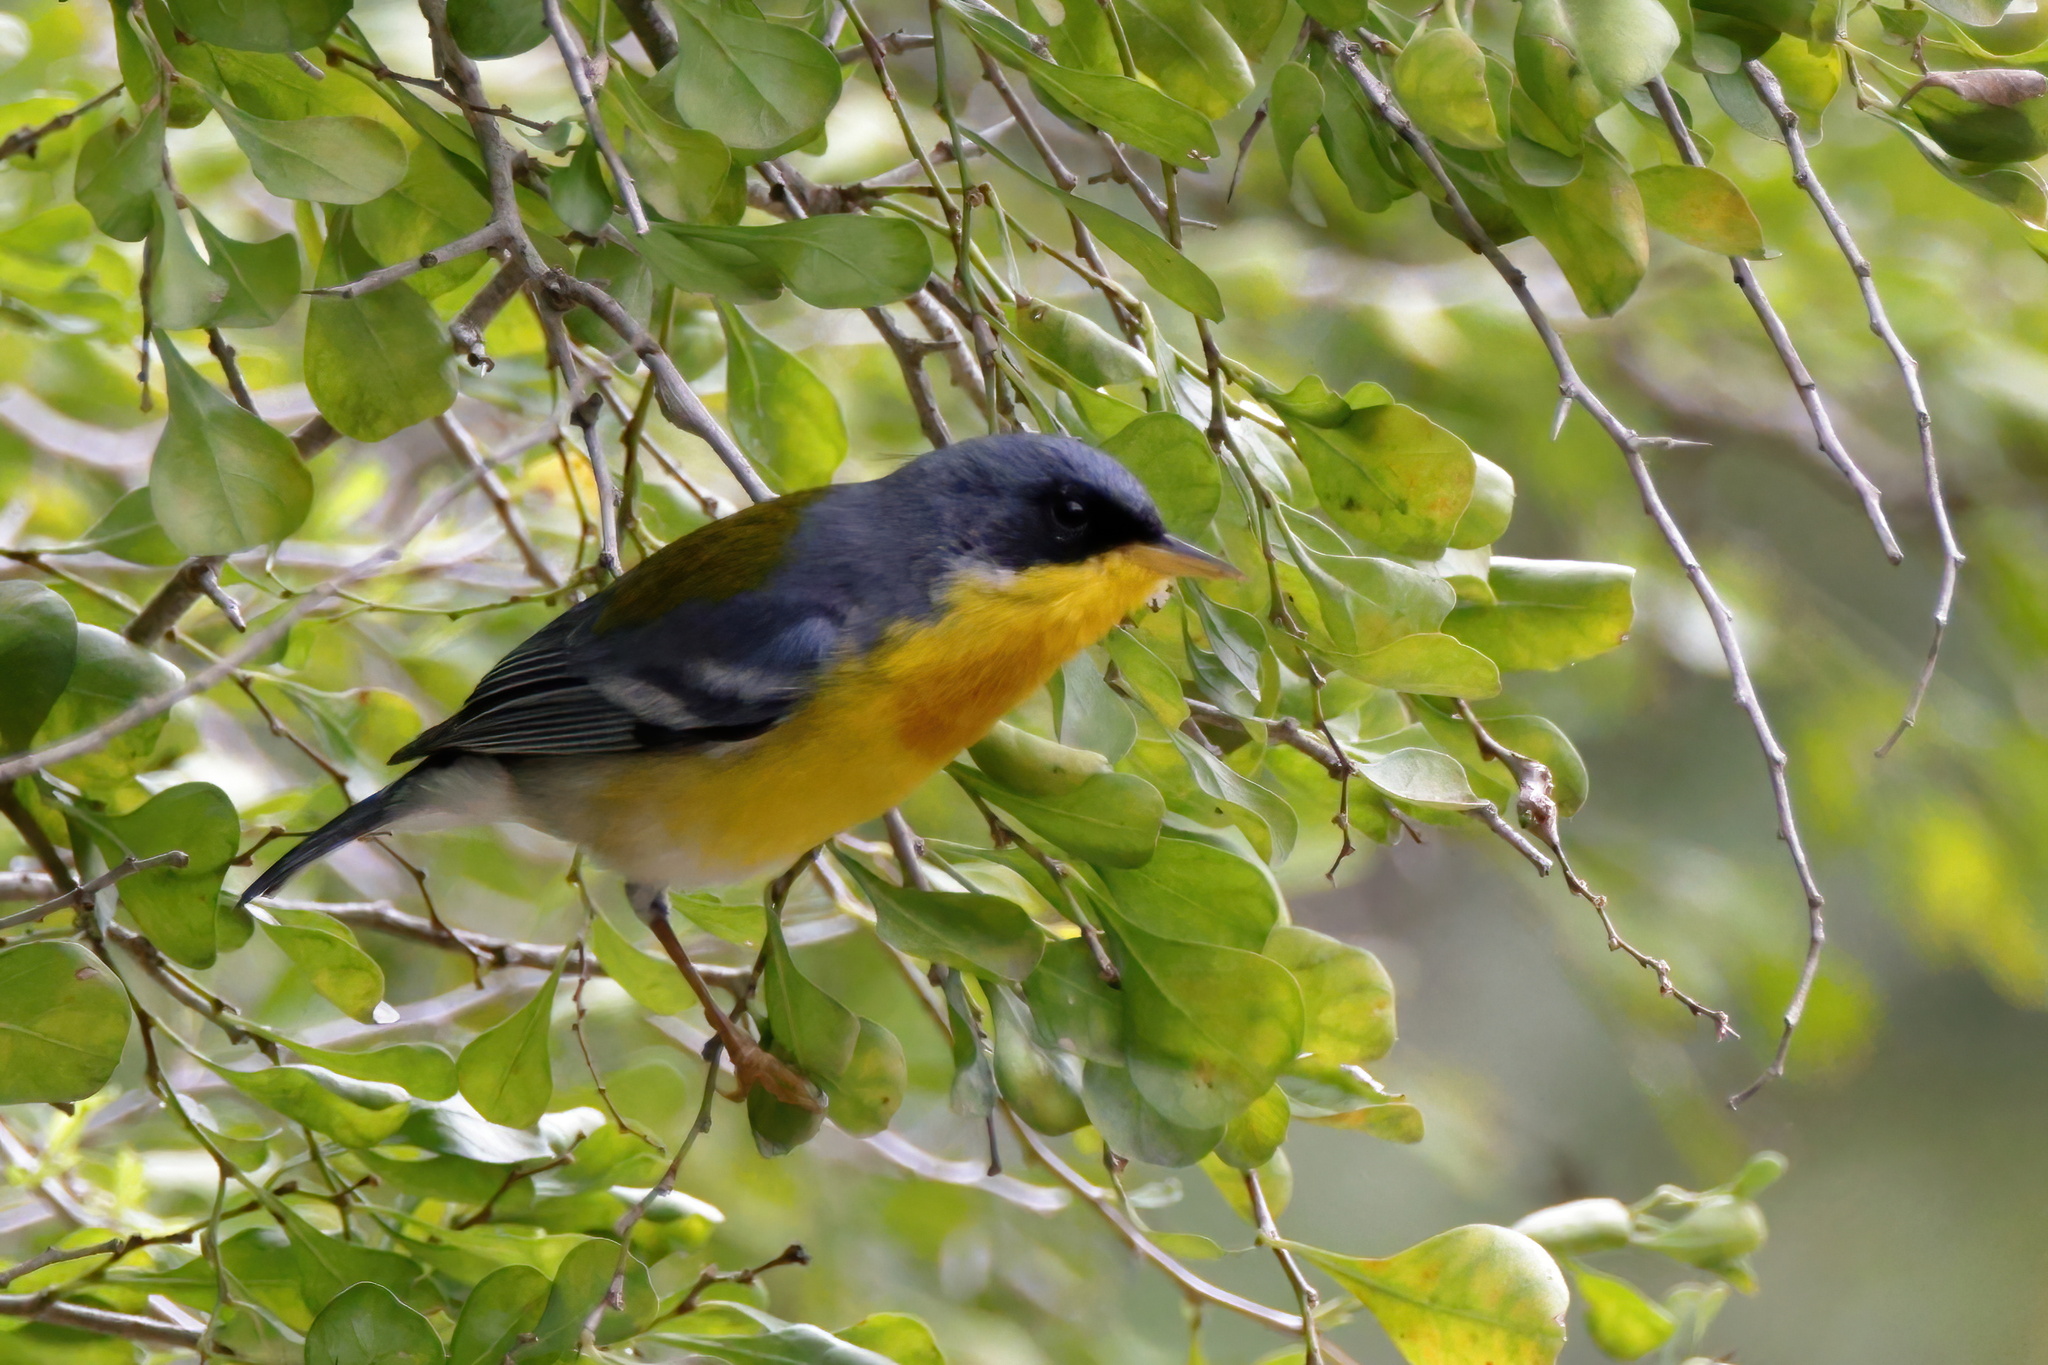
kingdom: Animalia
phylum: Chordata
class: Aves
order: Passeriformes
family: Parulidae
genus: Setophaga
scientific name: Setophaga pitiayumi
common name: Tropical parula
